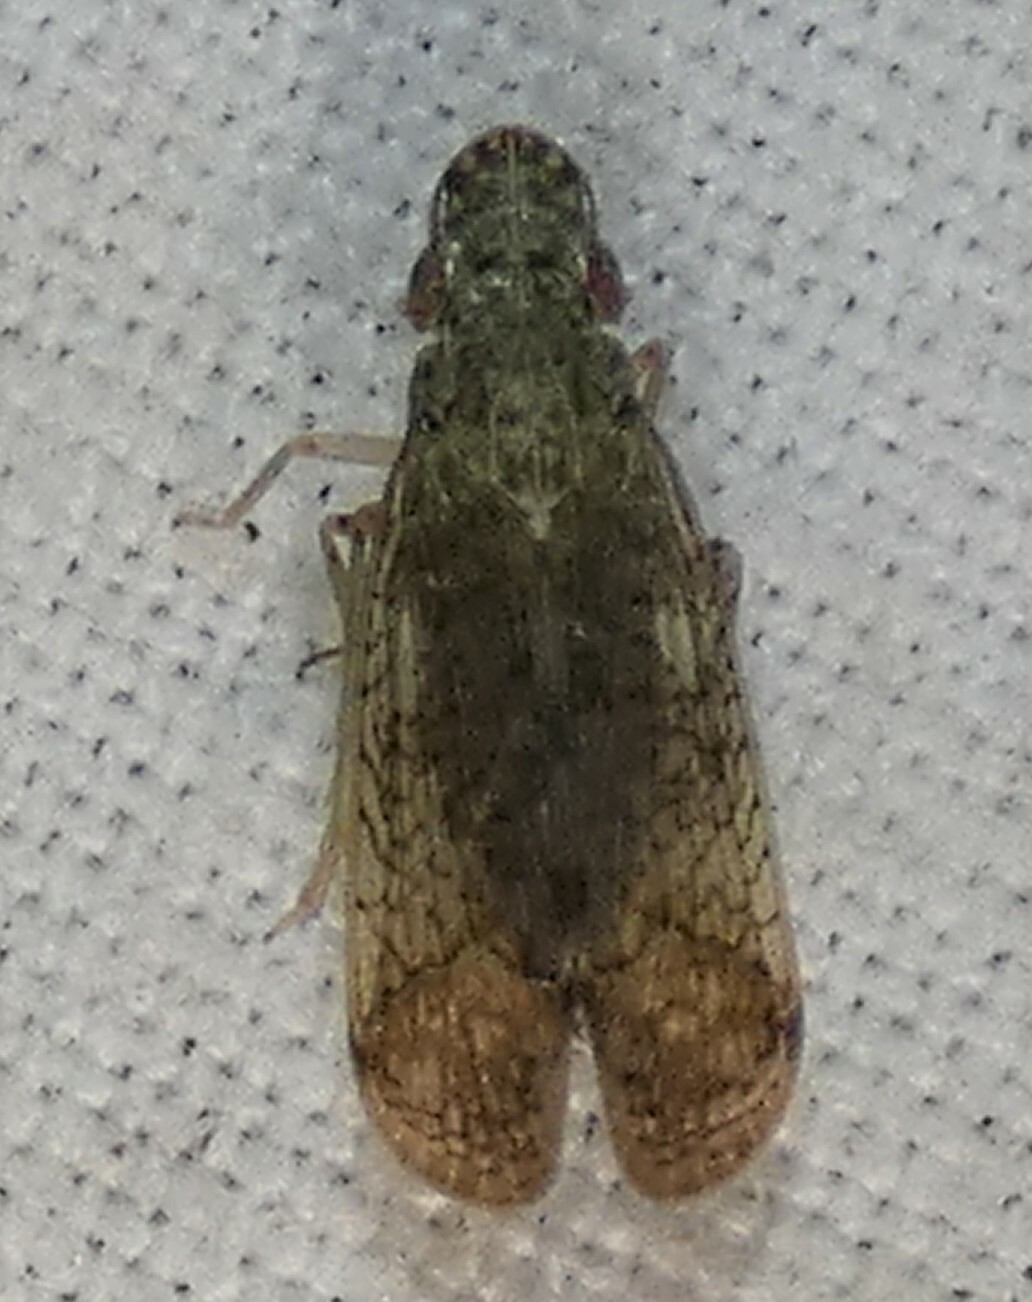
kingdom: Animalia
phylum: Arthropoda
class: Insecta
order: Hemiptera
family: Tropiduchidae
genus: Pelitropis
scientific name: Pelitropis rotulata
